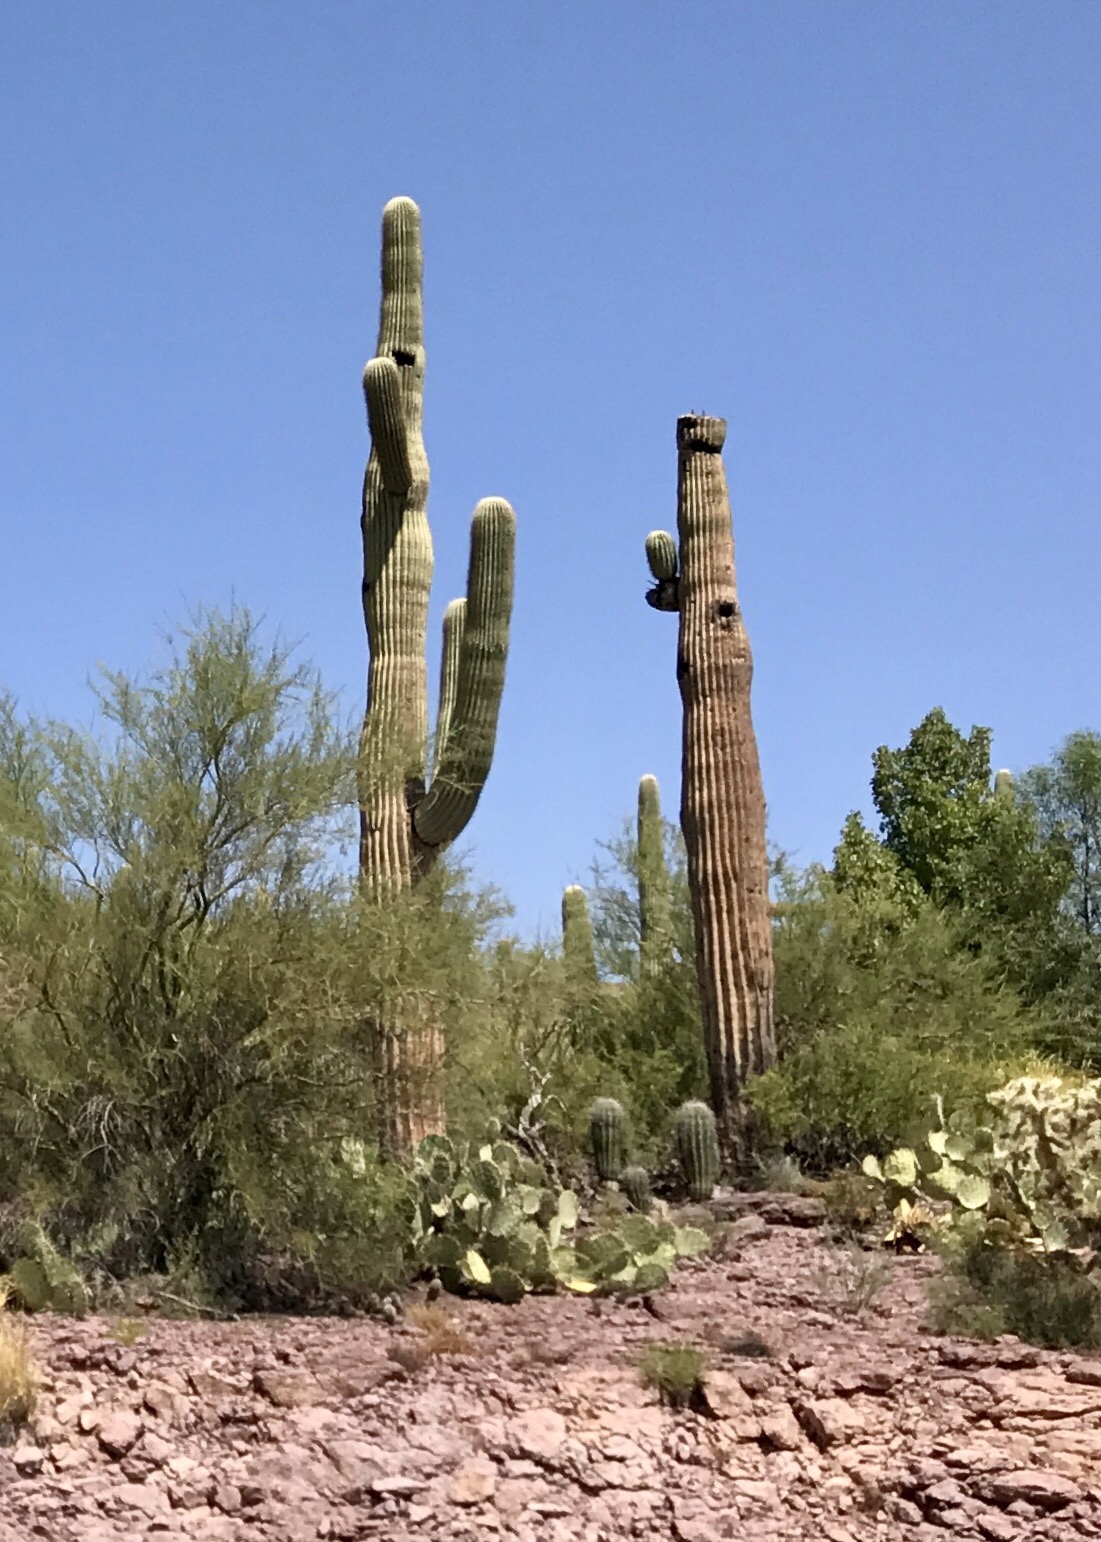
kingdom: Plantae
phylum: Tracheophyta
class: Magnoliopsida
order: Caryophyllales
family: Cactaceae
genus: Carnegiea
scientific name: Carnegiea gigantea
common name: Saguaro
